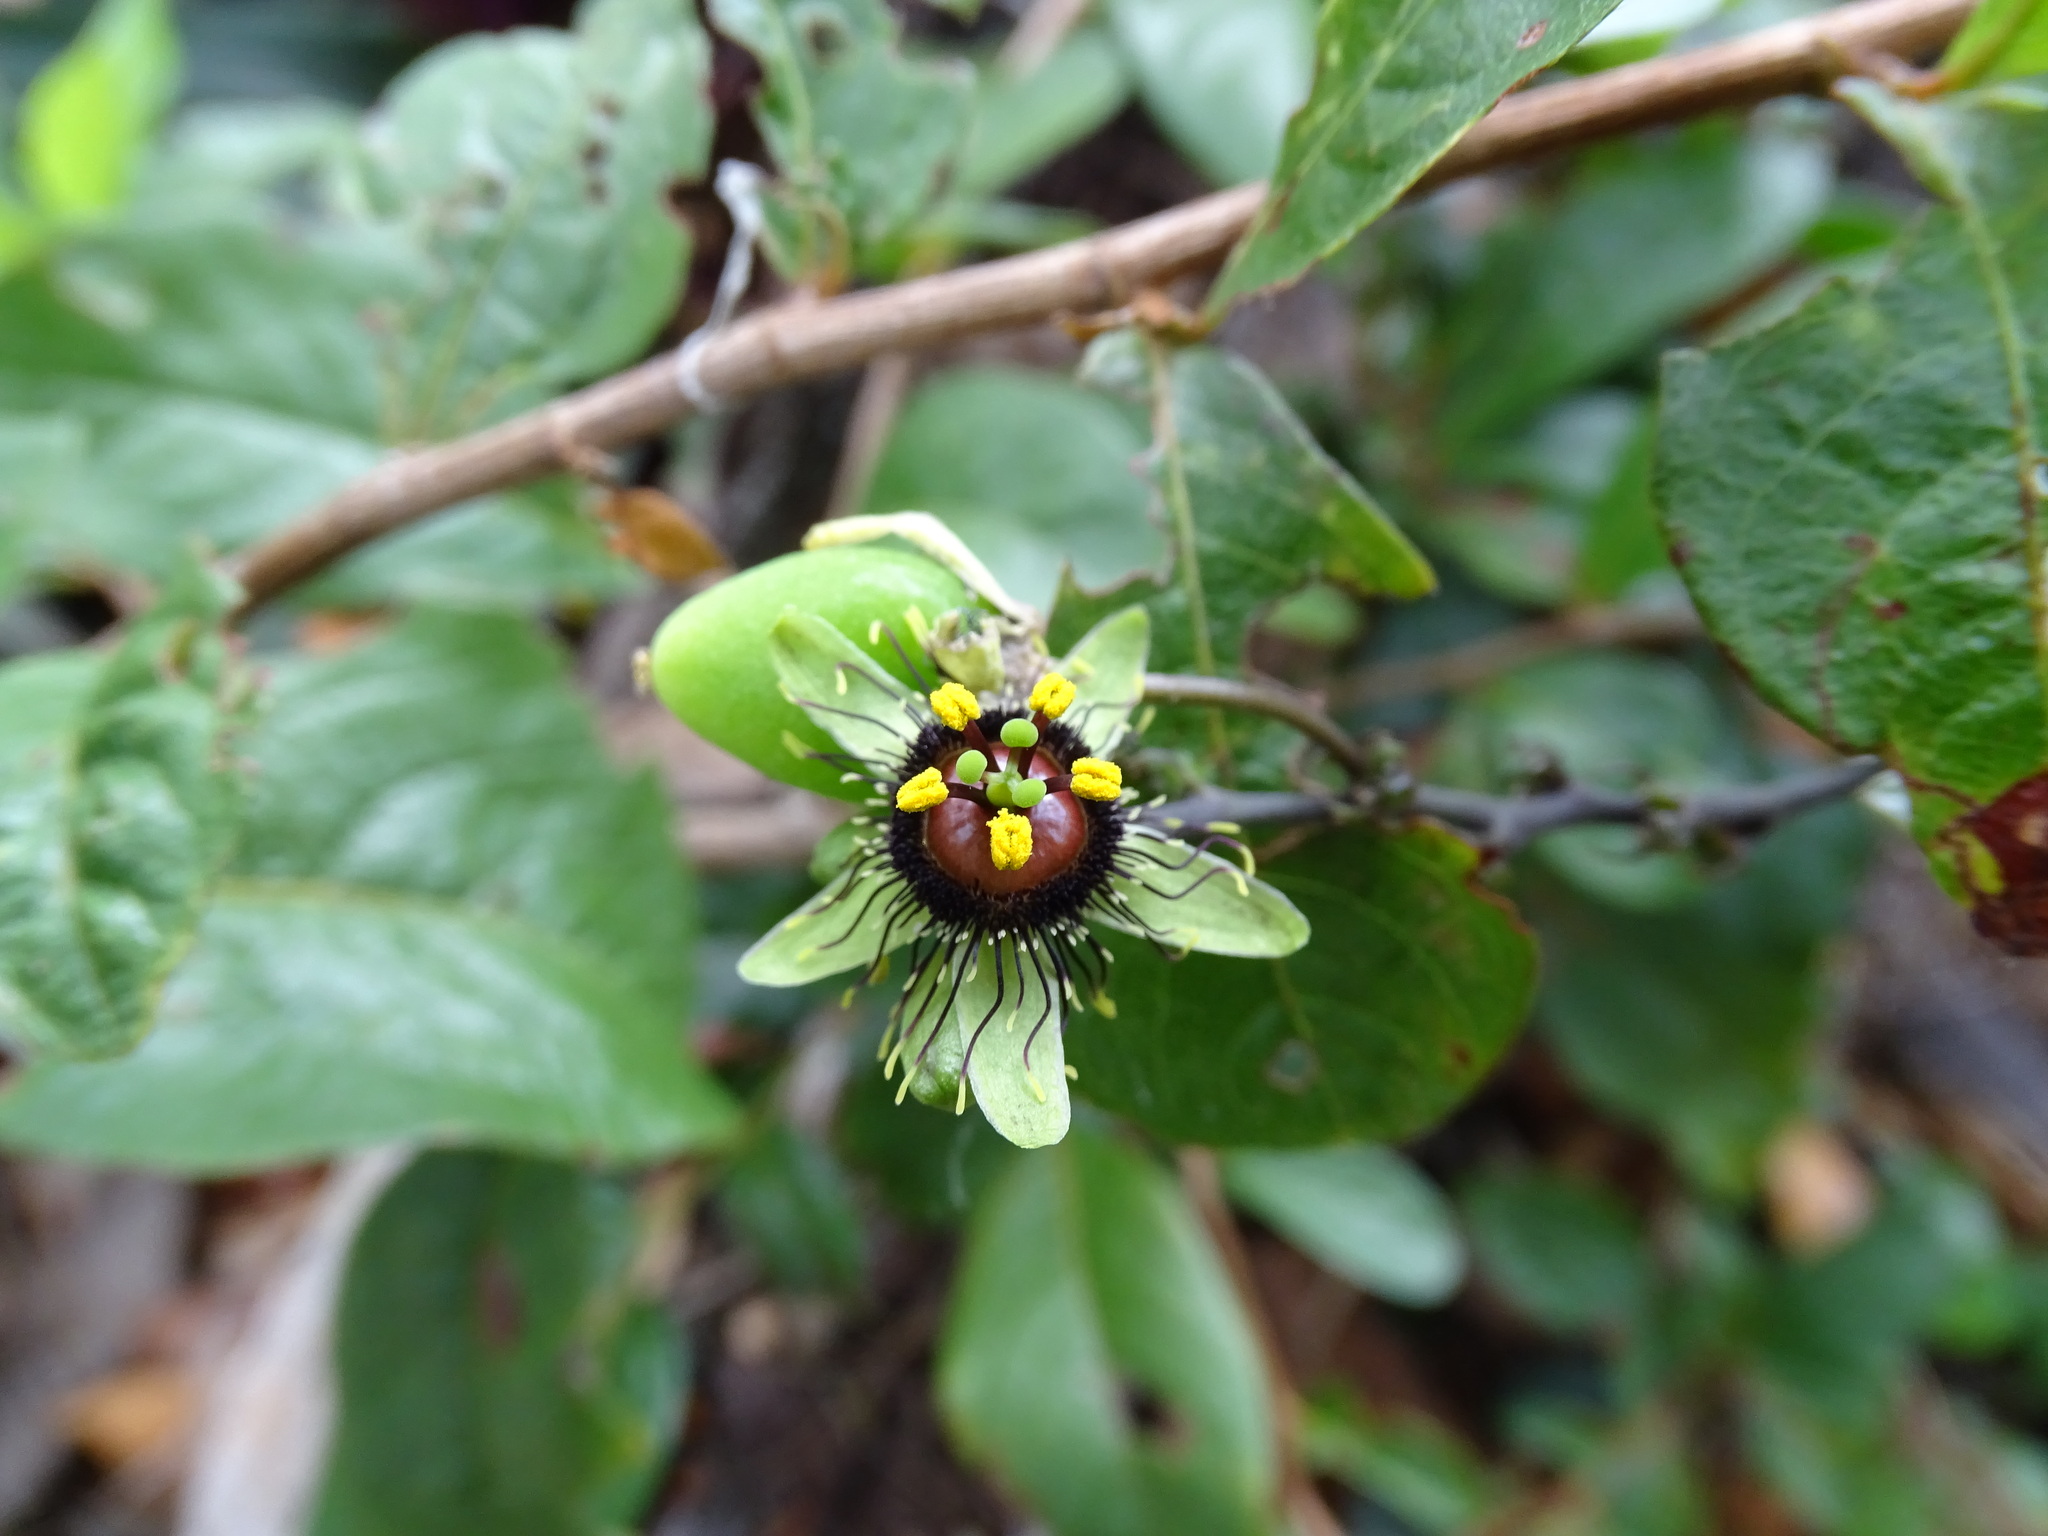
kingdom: Plantae
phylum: Tracheophyta
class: Magnoliopsida
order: Malpighiales
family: Passifloraceae
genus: Passiflora
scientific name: Passiflora itzensis
